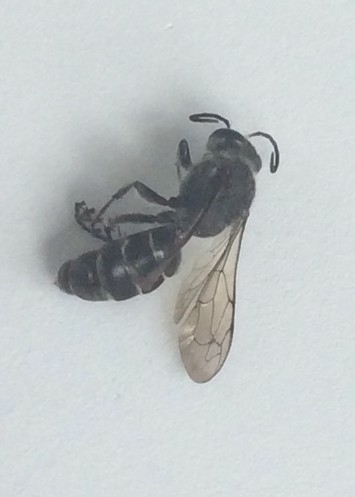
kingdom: Animalia
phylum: Arthropoda
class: Insecta
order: Hymenoptera
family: Crabronidae
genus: Pison
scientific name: Pison spinolae
